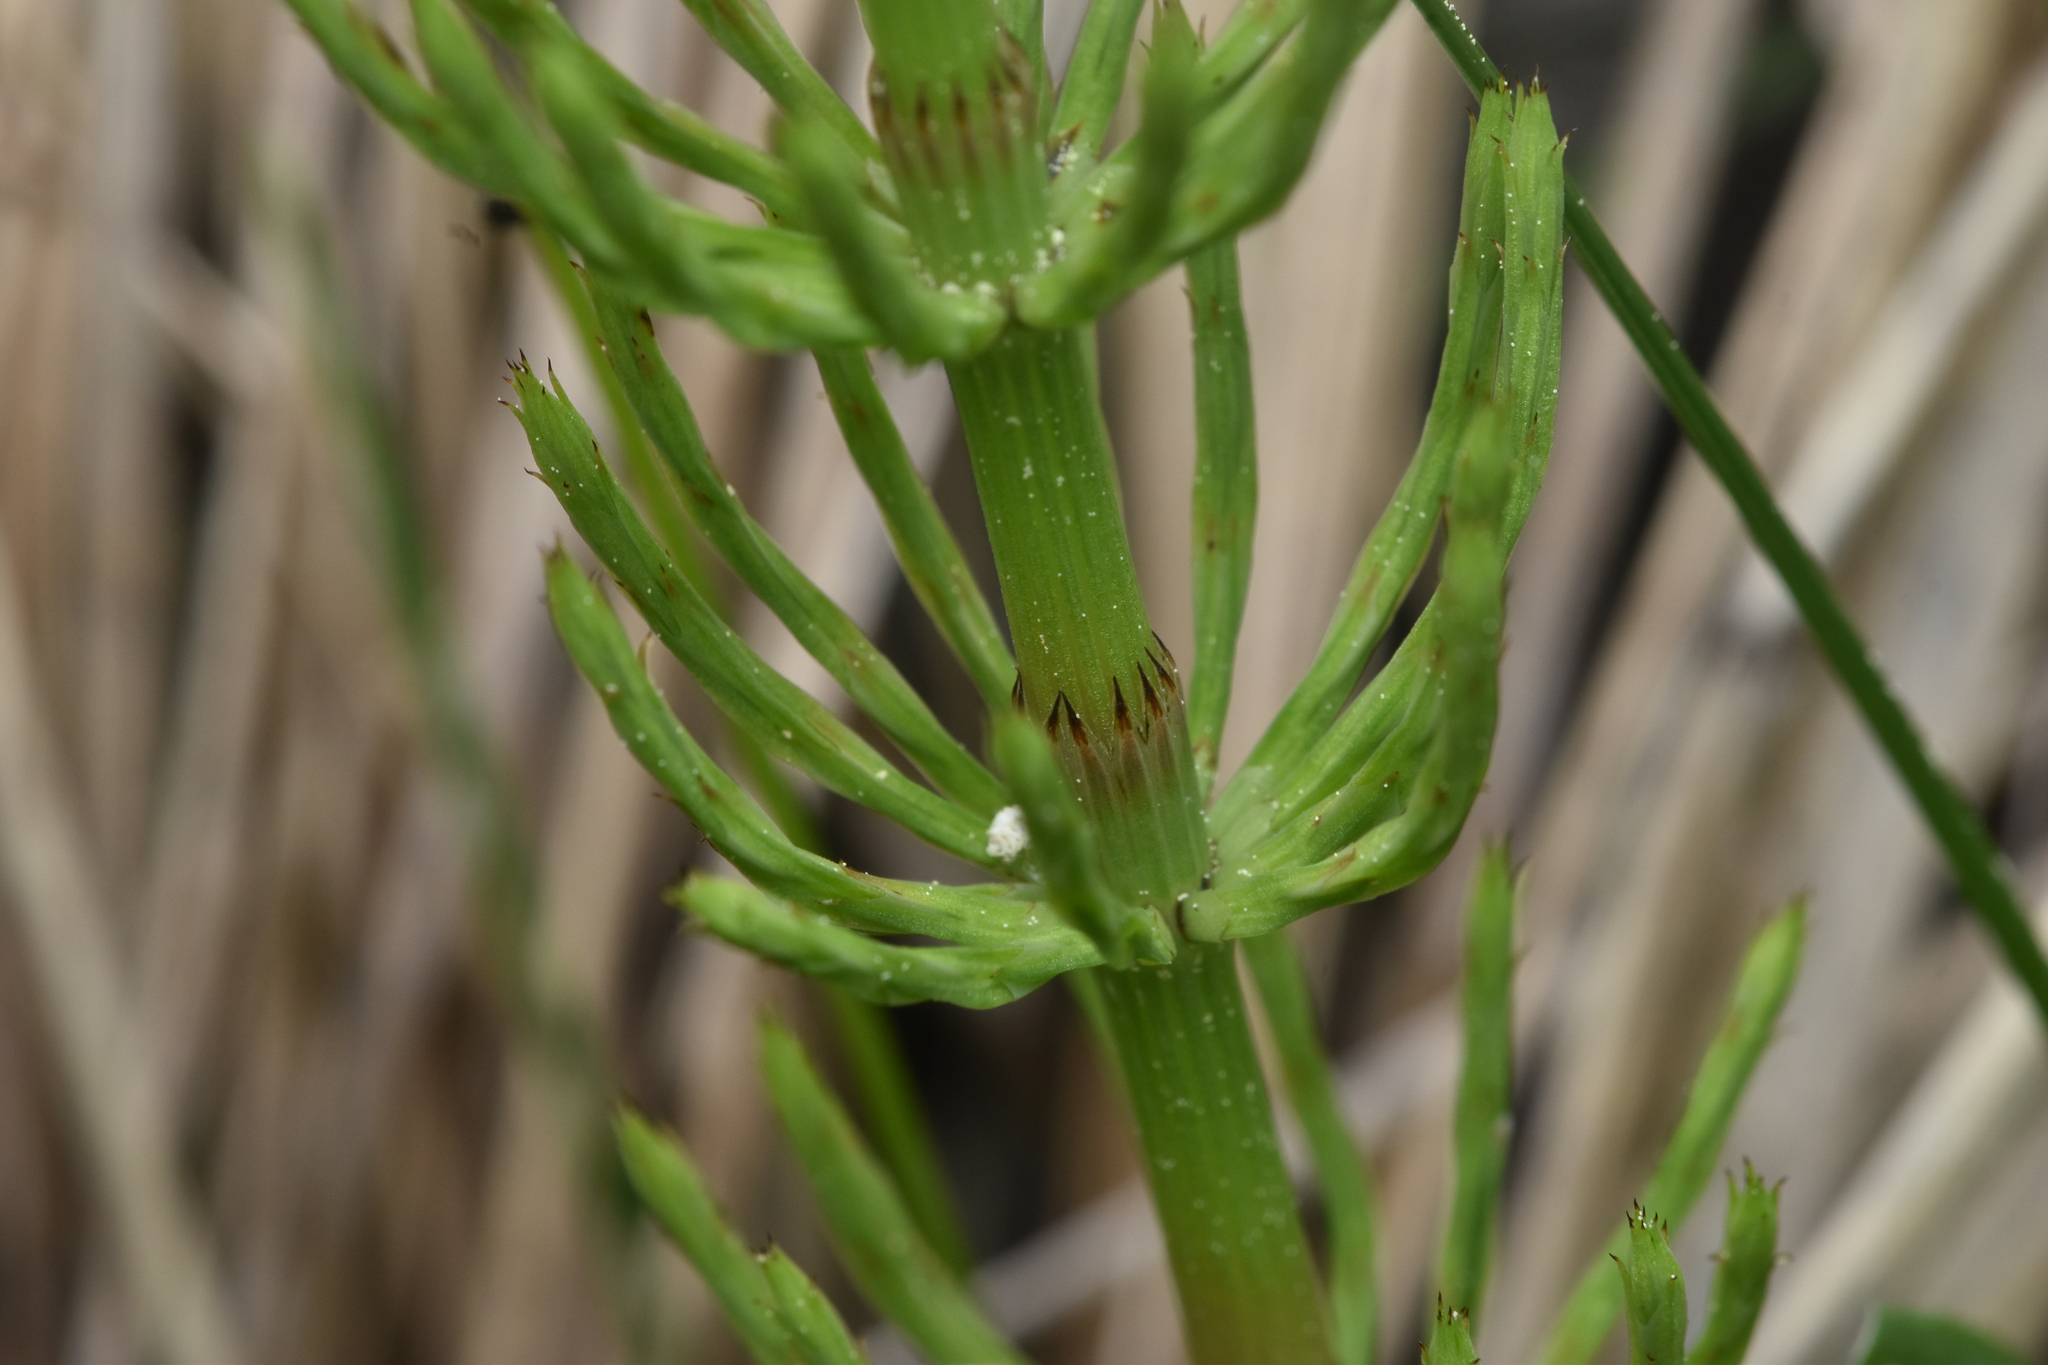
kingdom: Plantae
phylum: Tracheophyta
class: Polypodiopsida
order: Equisetales
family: Equisetaceae
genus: Equisetum
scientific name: Equisetum arvense
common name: Field horsetail
